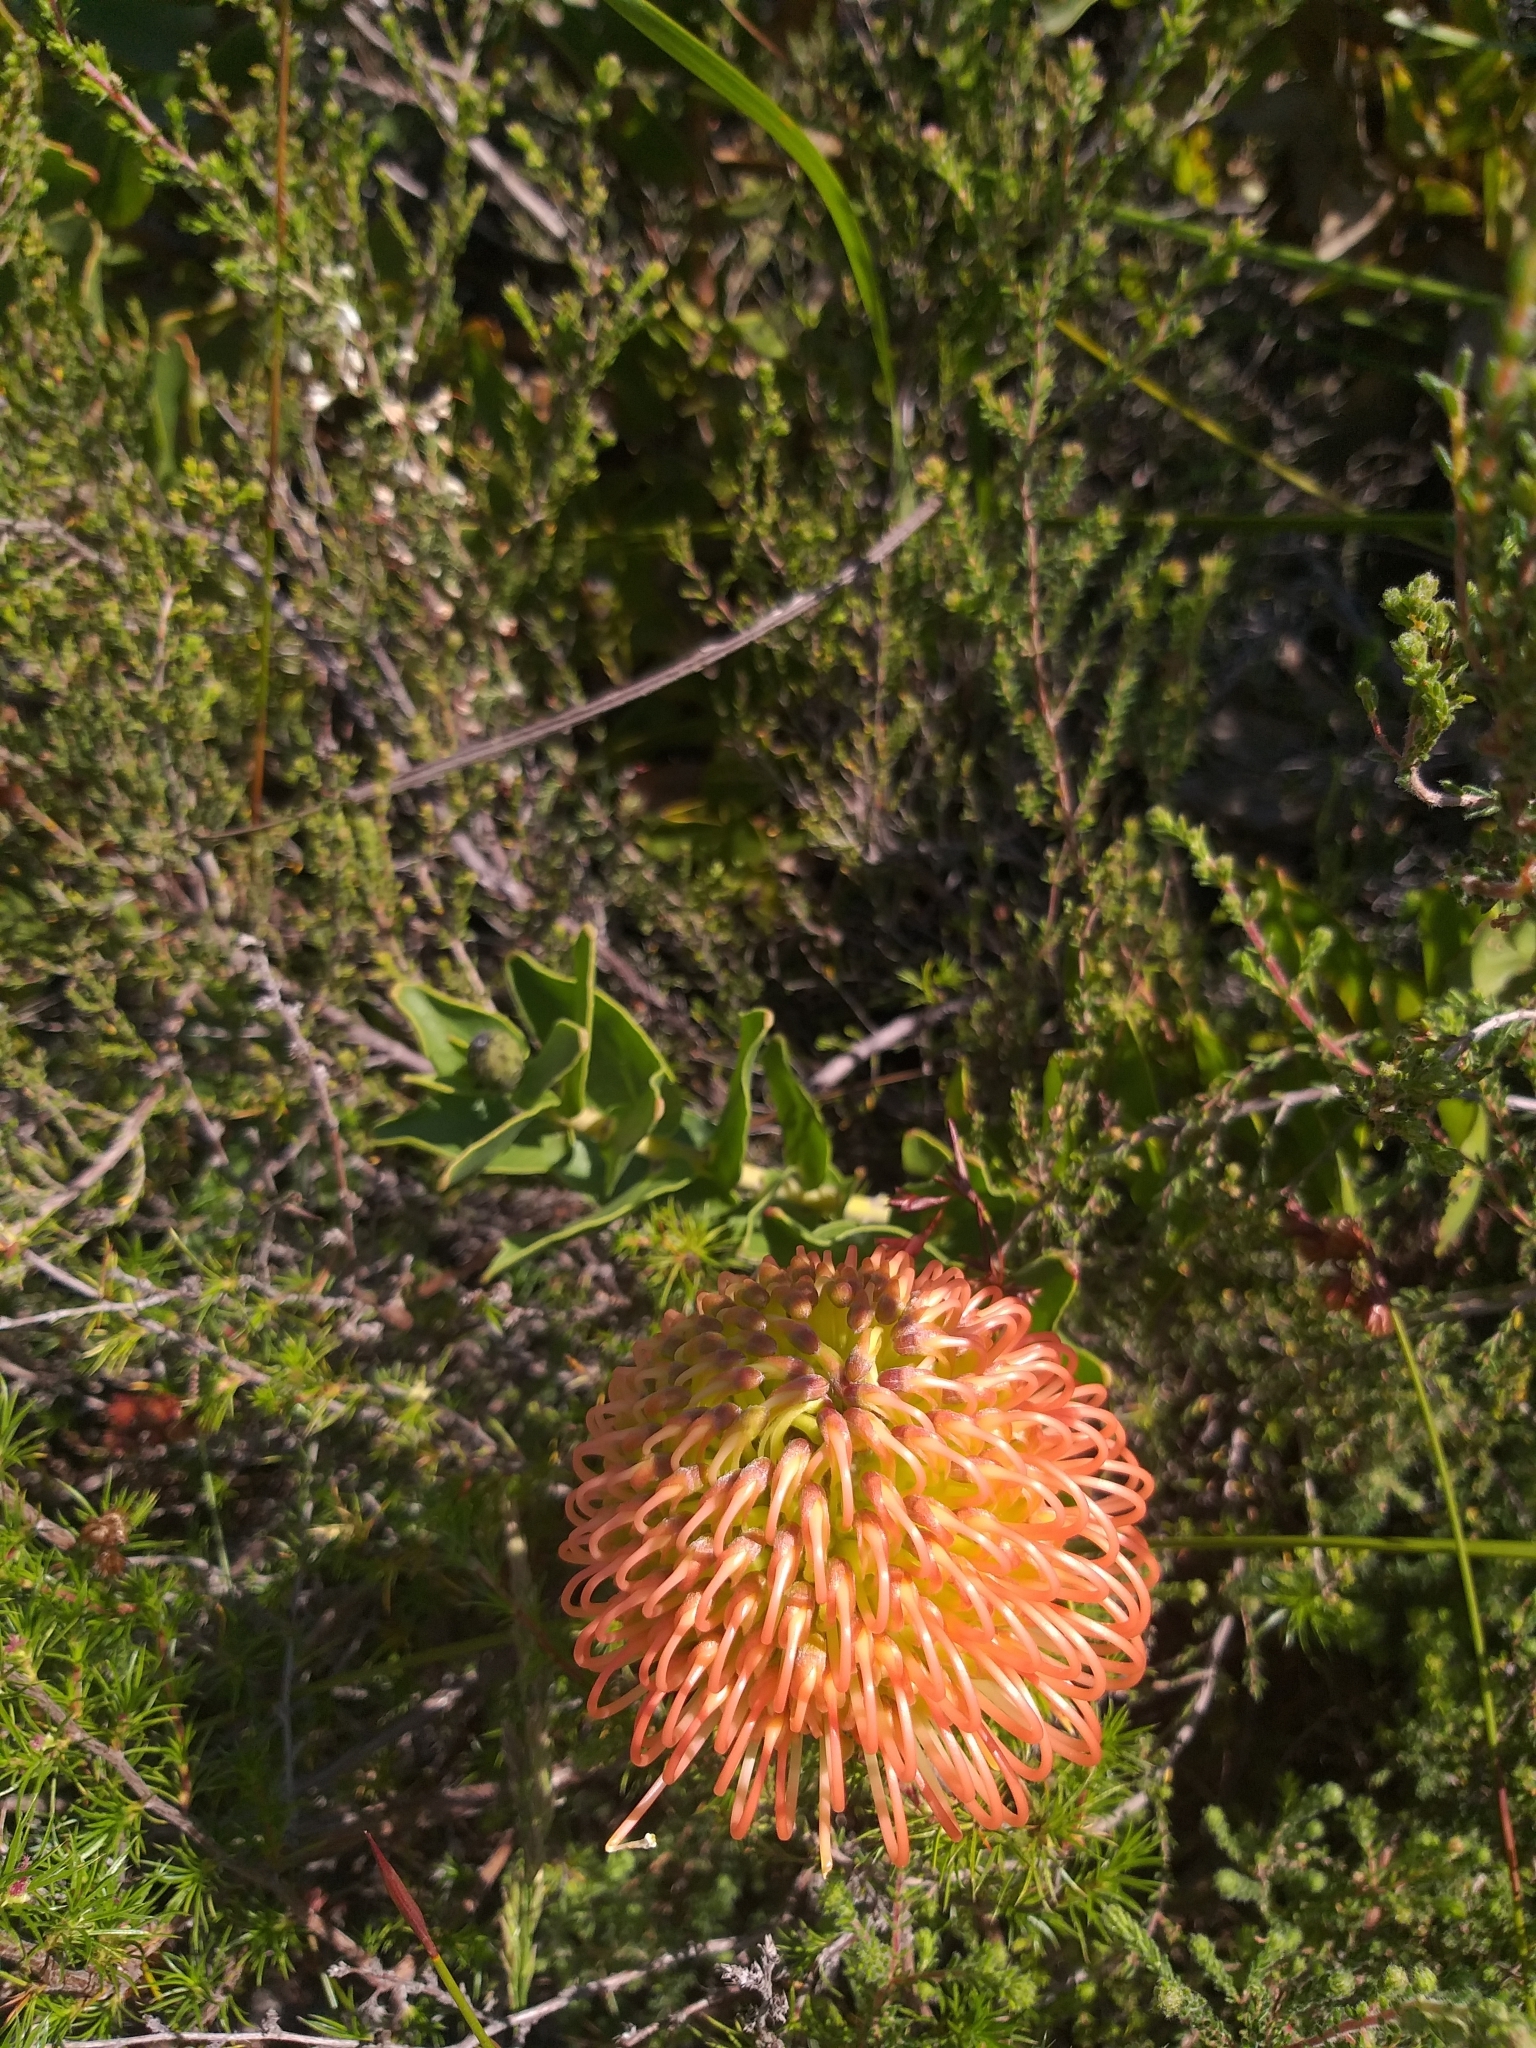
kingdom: Plantae
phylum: Tracheophyta
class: Magnoliopsida
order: Proteales
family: Proteaceae
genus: Leucospermum
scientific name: Leucospermum cordifolium
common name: Red pincushion-protea
